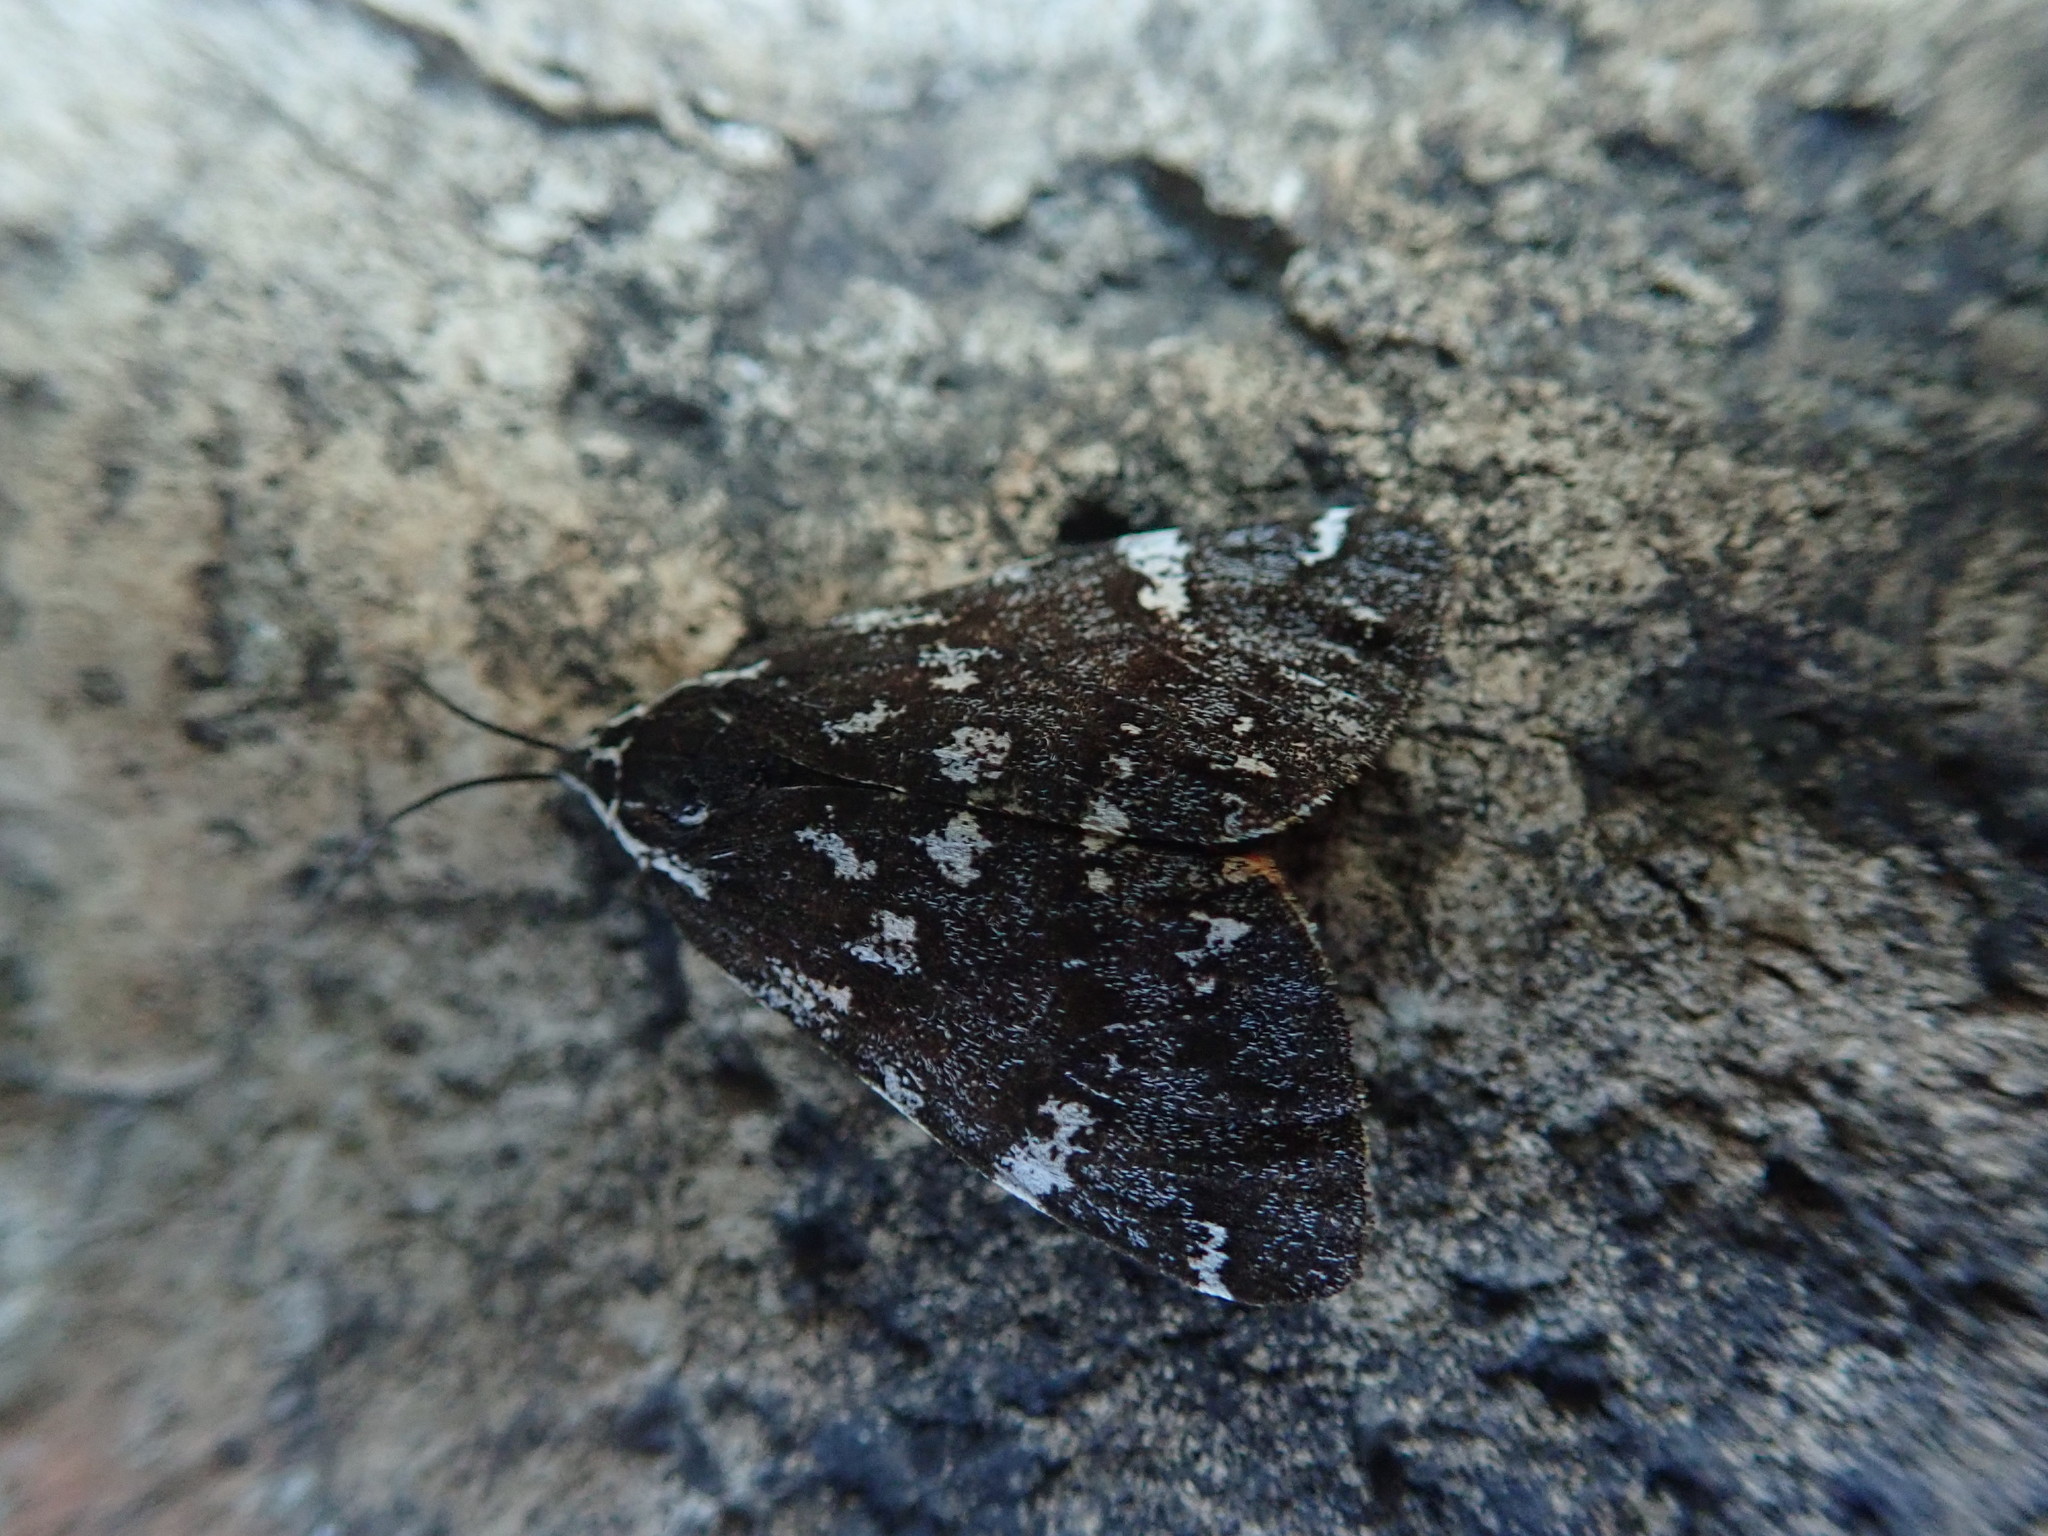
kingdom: Animalia
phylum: Arthropoda
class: Insecta
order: Lepidoptera
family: Erebidae
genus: Leptarctia
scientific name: Leptarctia californiae
